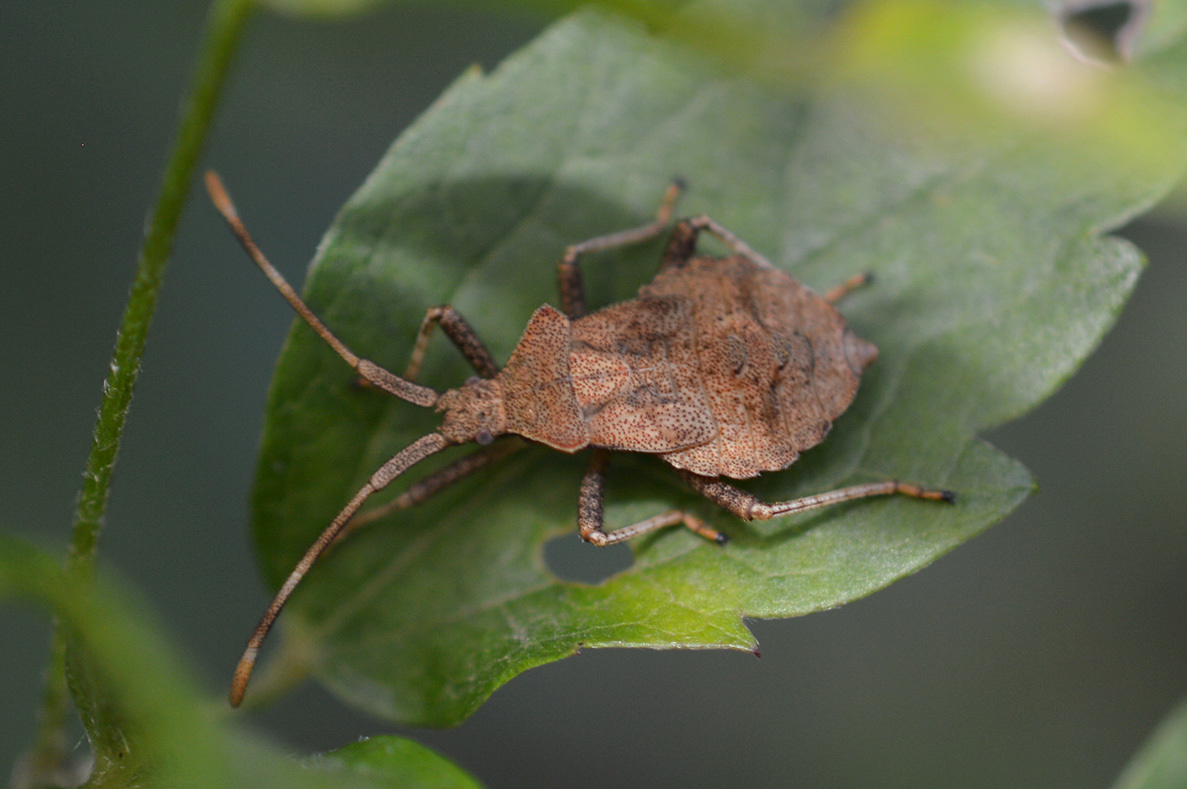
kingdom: Animalia
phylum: Arthropoda
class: Insecta
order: Hemiptera
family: Coreidae
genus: Coreus
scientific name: Coreus marginatus
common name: Dock bug
